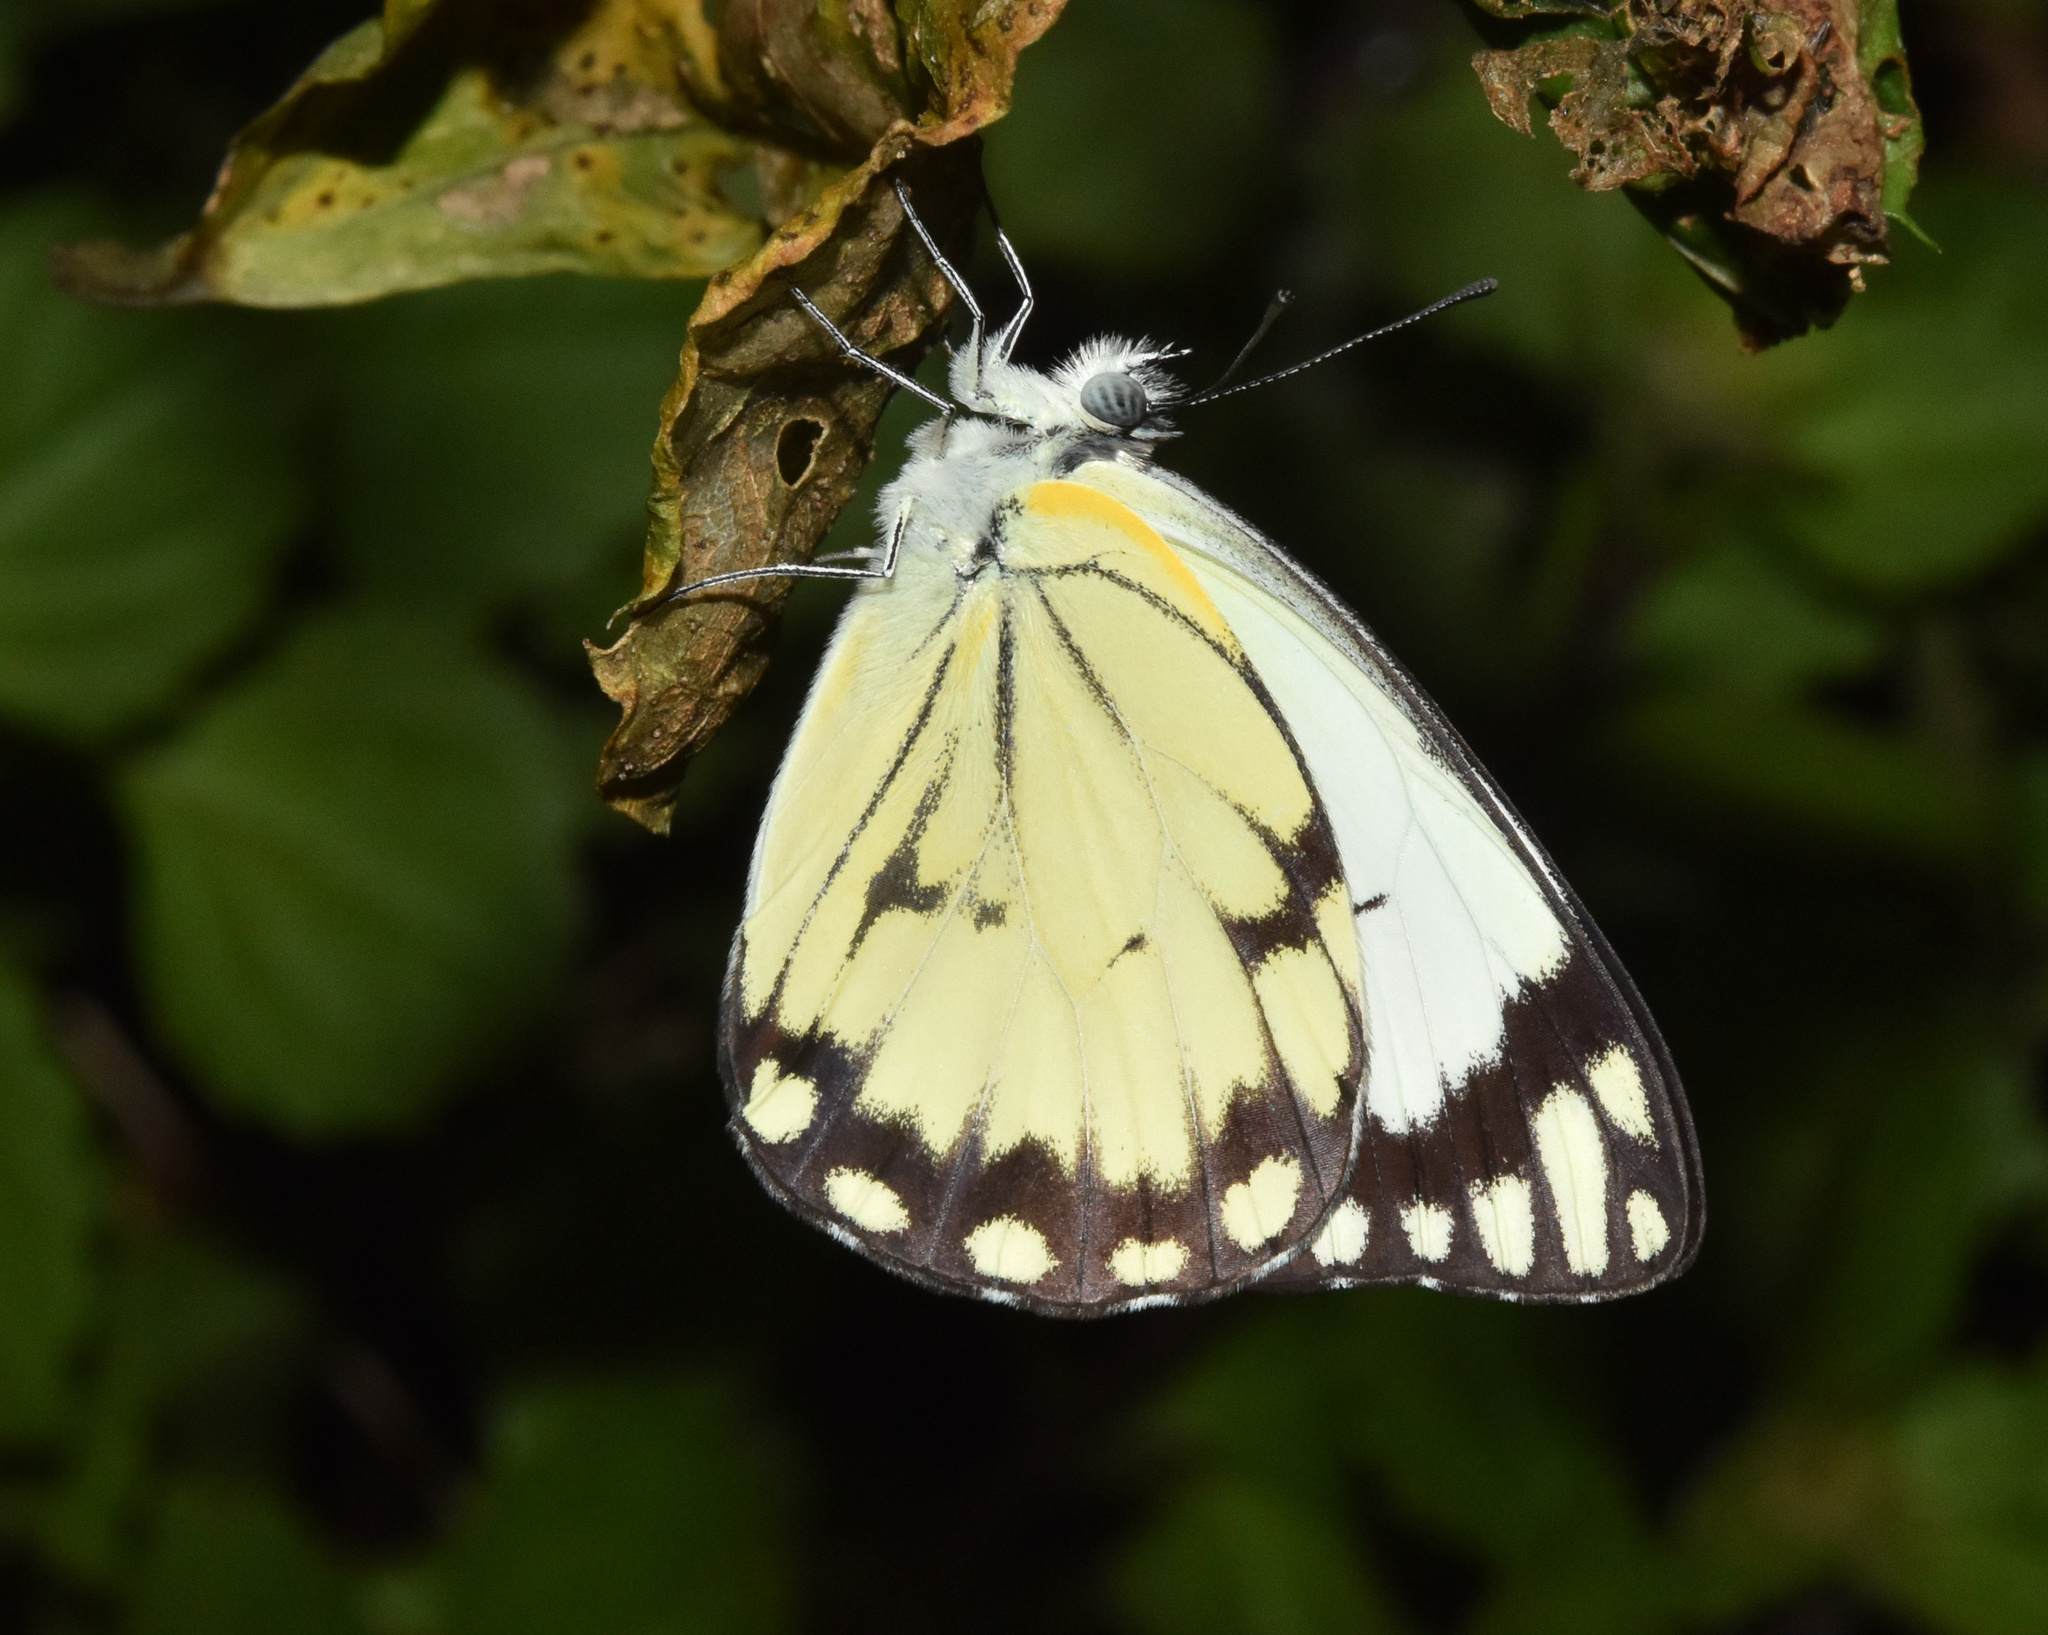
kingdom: Animalia
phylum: Arthropoda
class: Insecta
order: Lepidoptera
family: Pieridae
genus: Belenois
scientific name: Belenois creona
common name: African caper white
